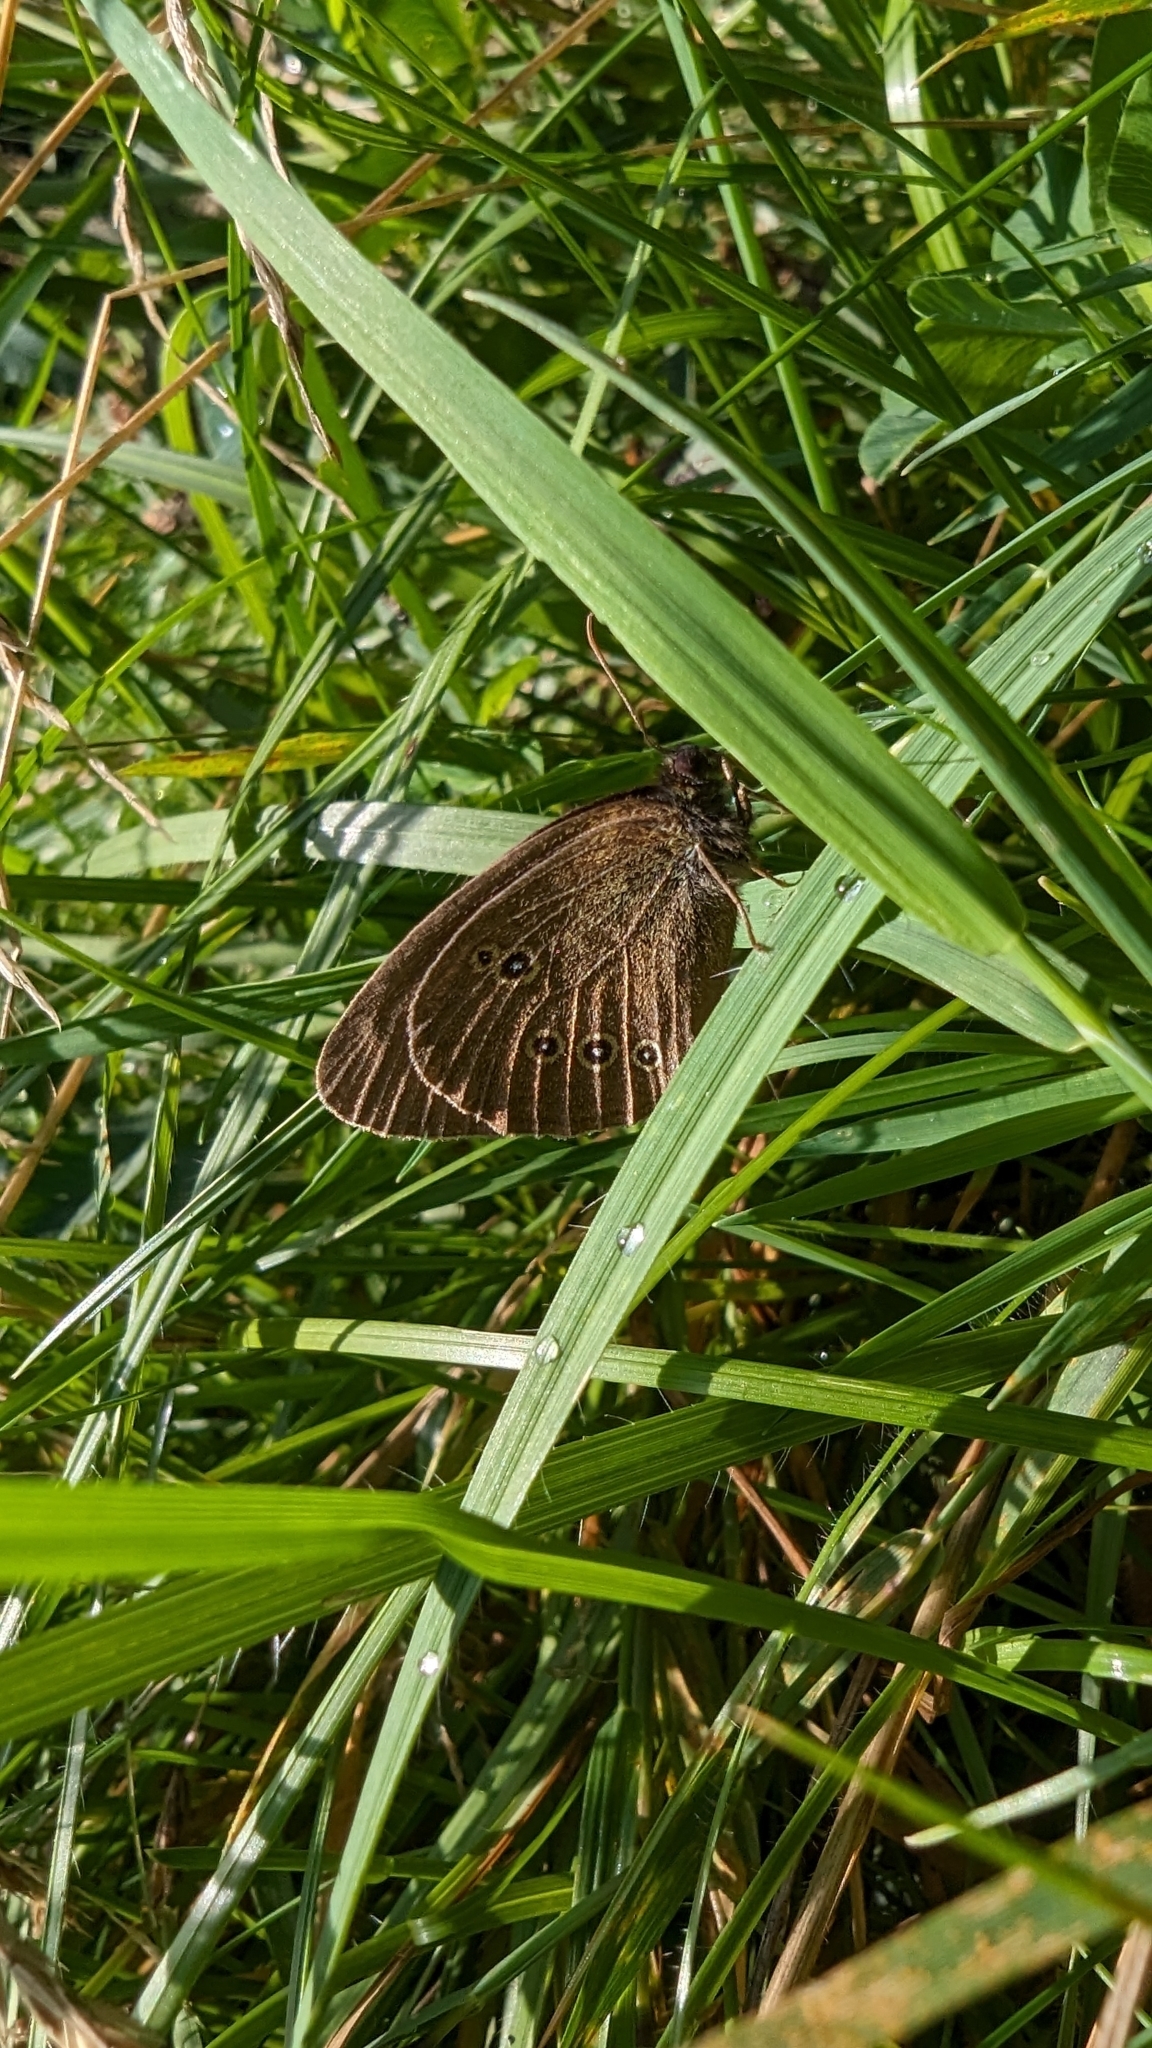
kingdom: Animalia
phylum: Arthropoda
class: Insecta
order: Lepidoptera
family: Nymphalidae
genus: Aphantopus
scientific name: Aphantopus hyperantus
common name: Ringlet
